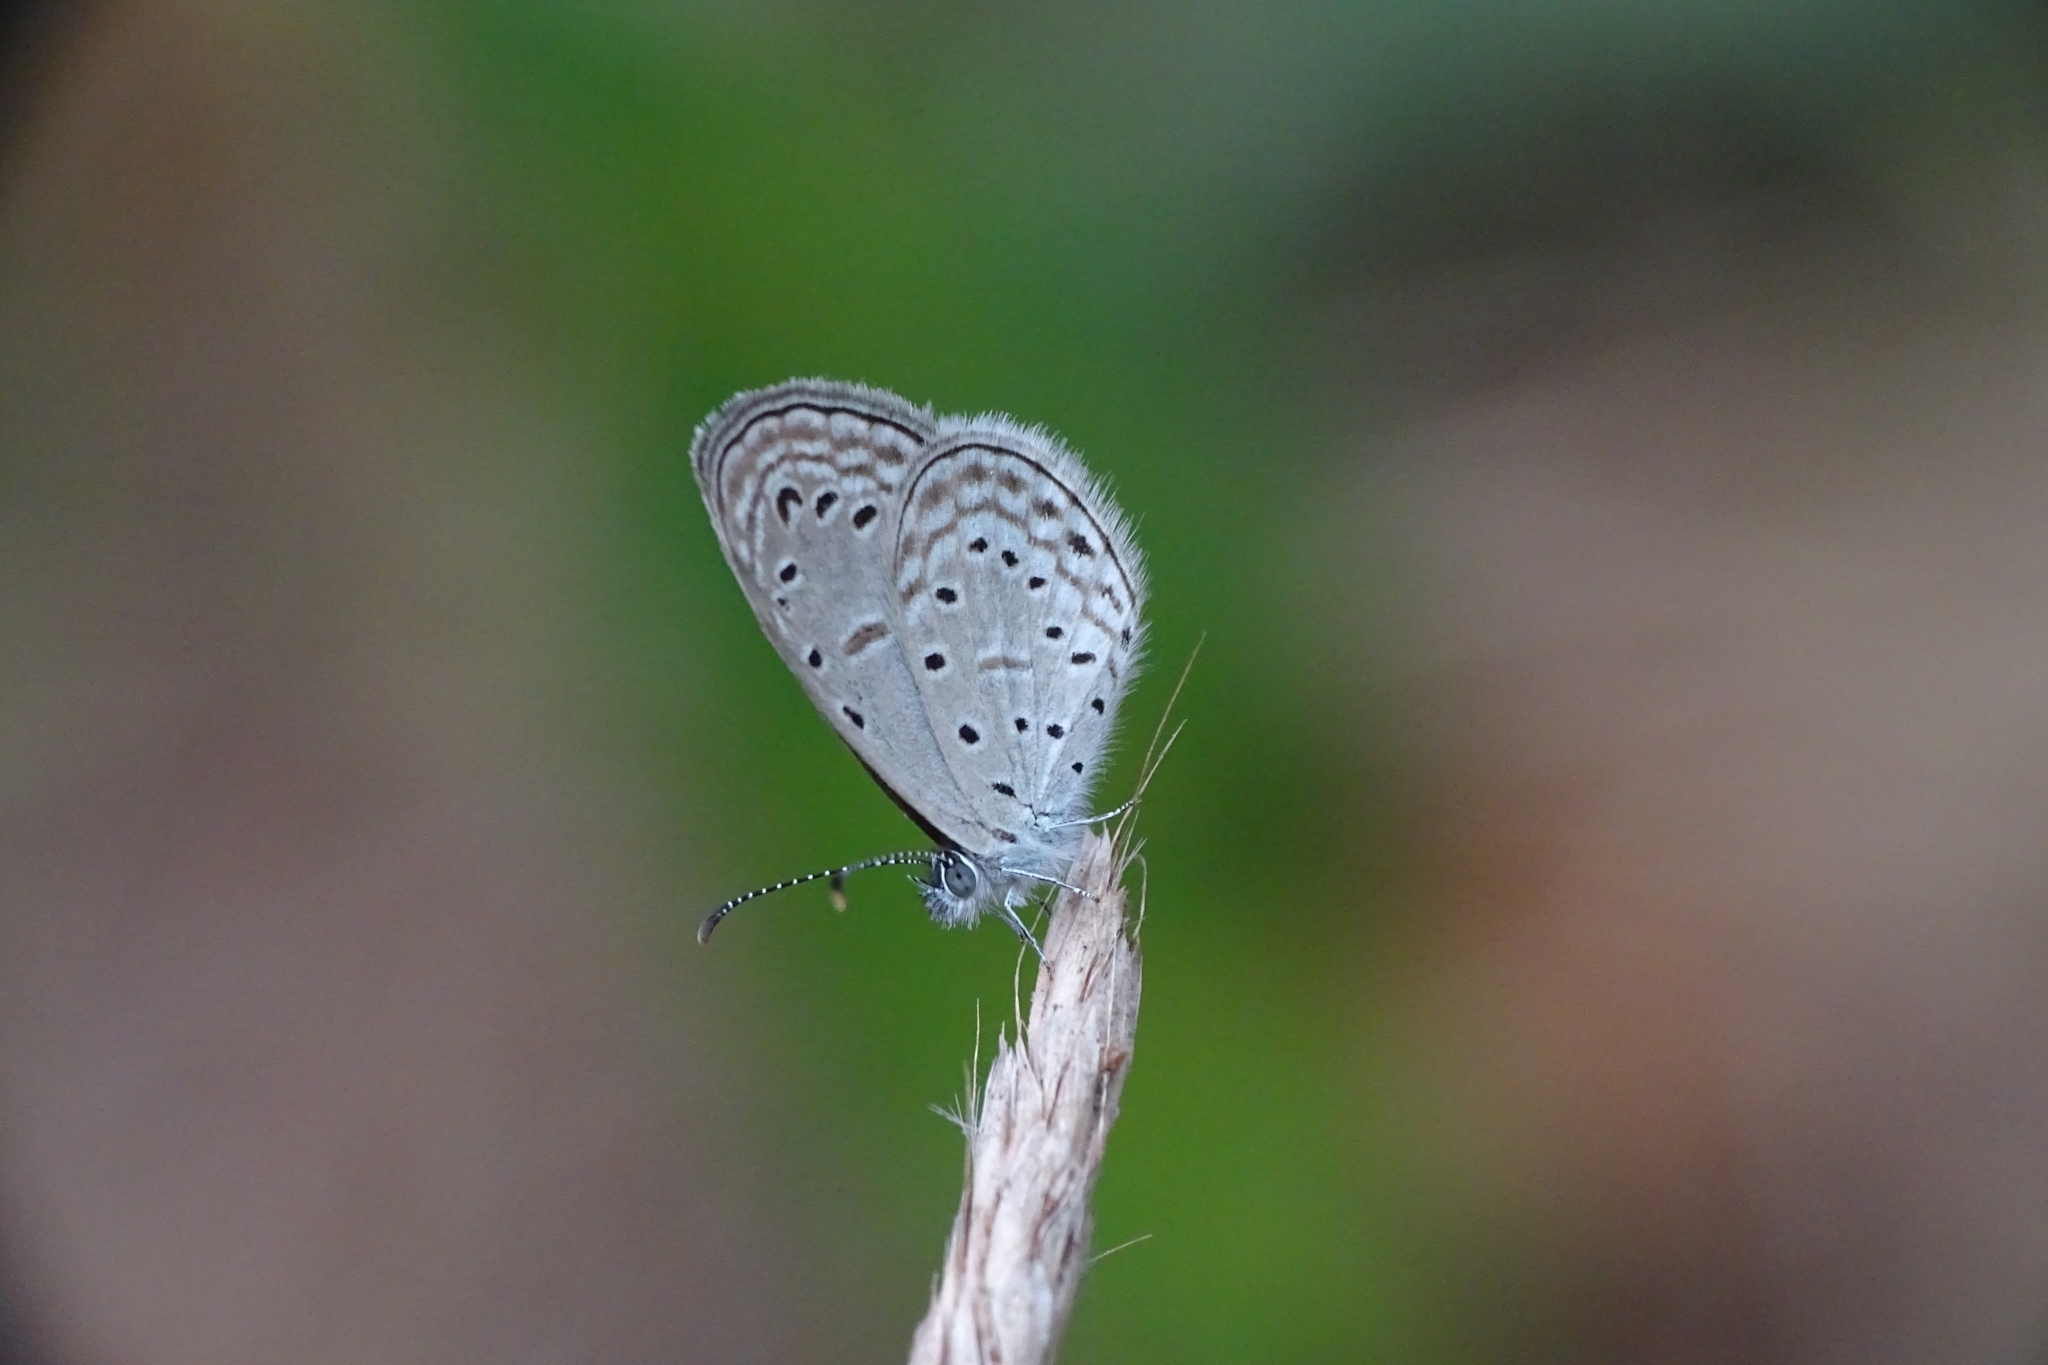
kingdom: Animalia
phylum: Arthropoda
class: Insecta
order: Lepidoptera
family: Lycaenidae
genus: Zizula
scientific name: Zizula hylax
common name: Gaika blue
